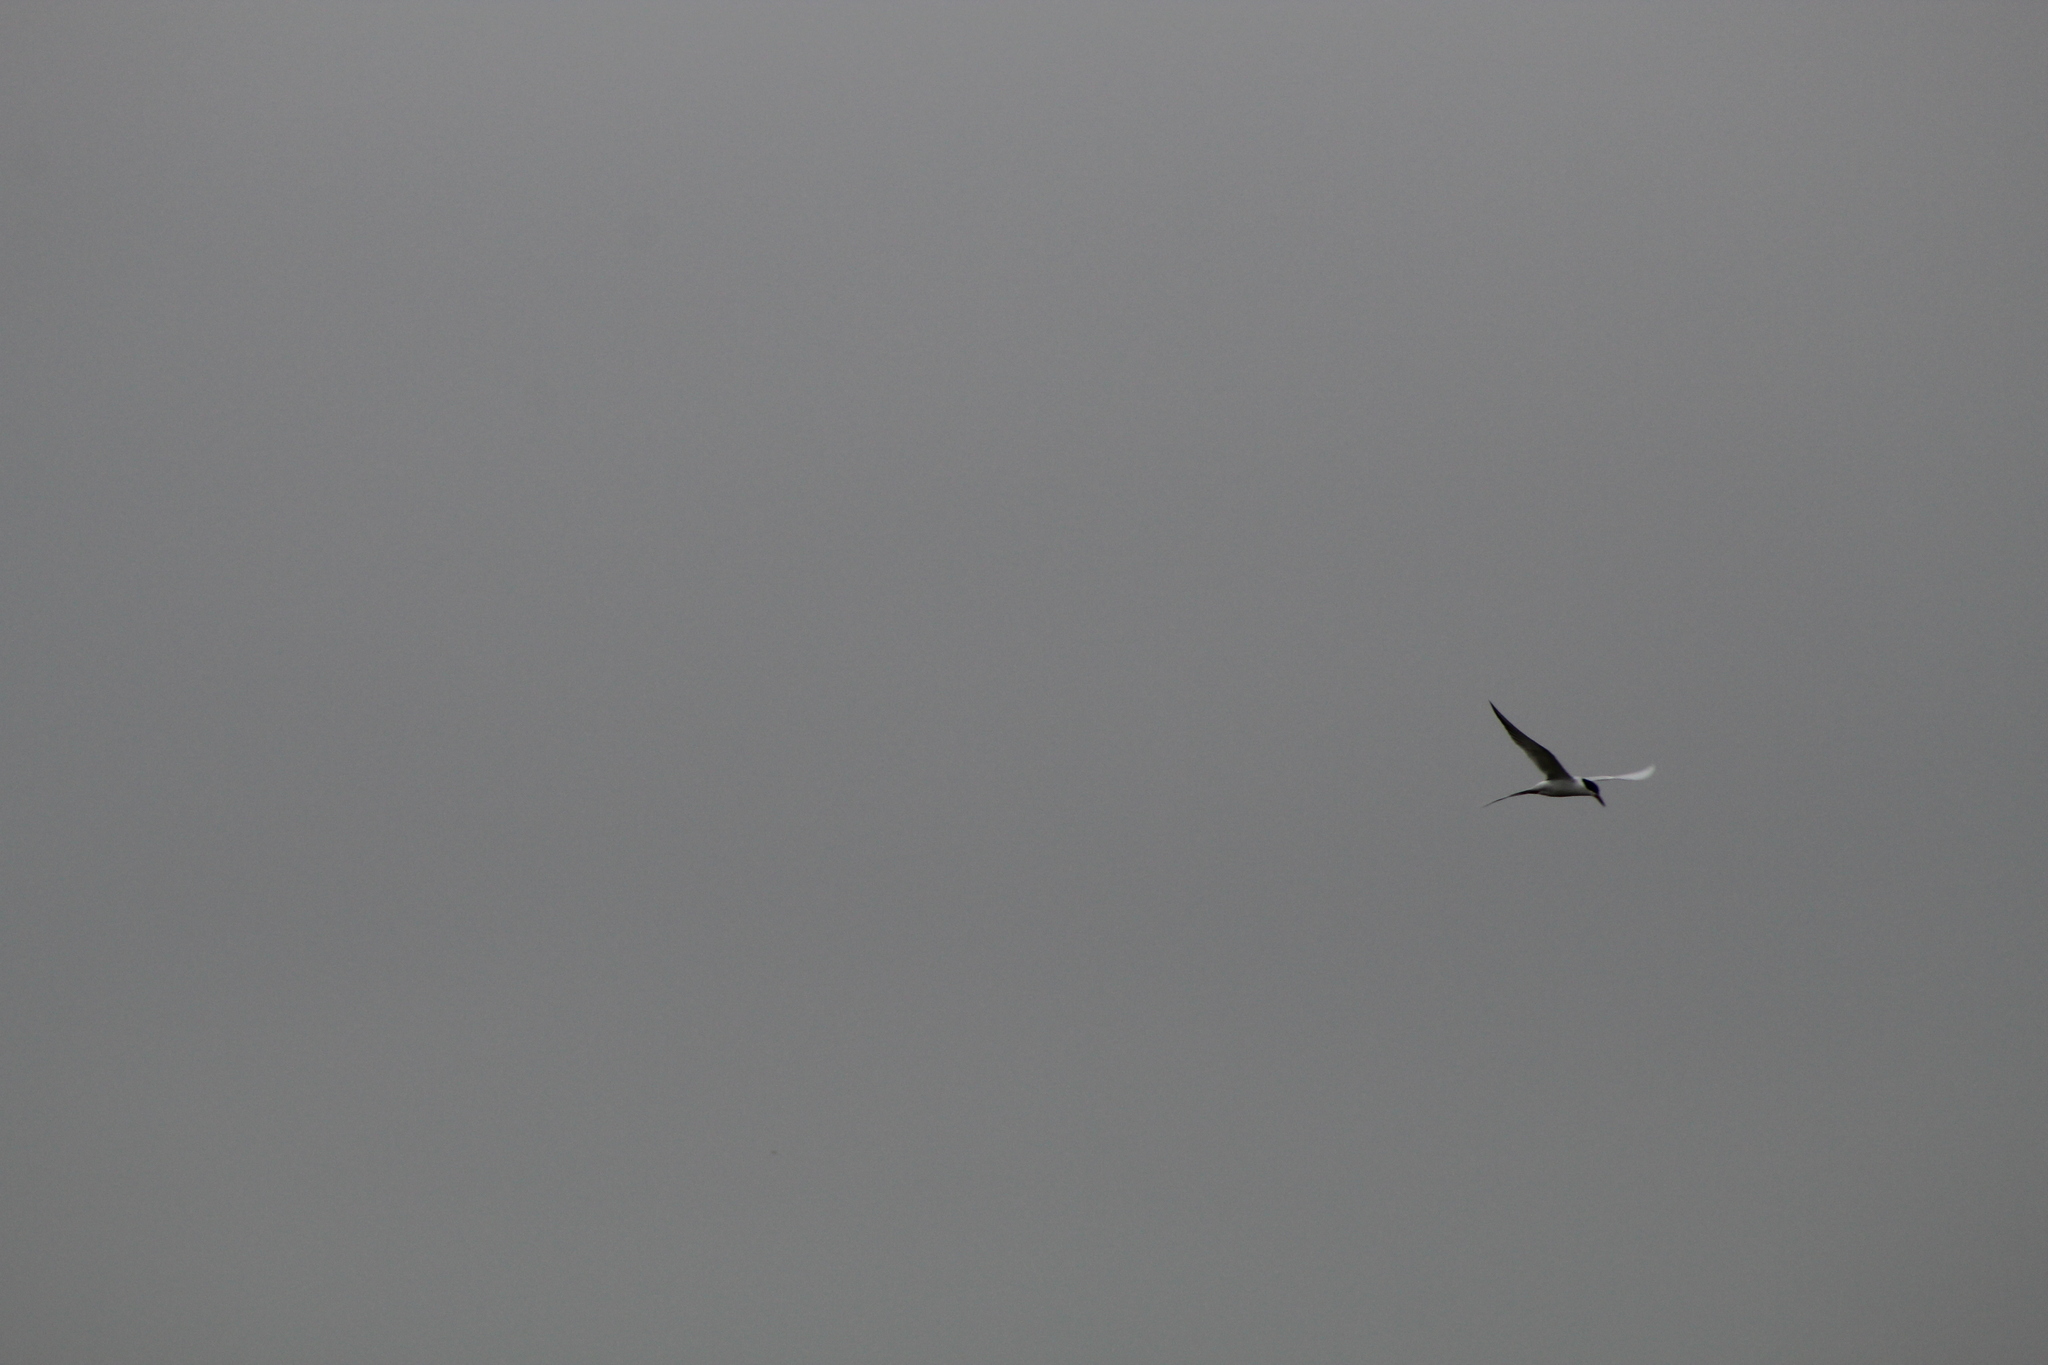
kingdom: Animalia
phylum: Chordata
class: Aves
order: Charadriiformes
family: Laridae
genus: Sterna
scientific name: Sterna forsteri
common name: Forster's tern
